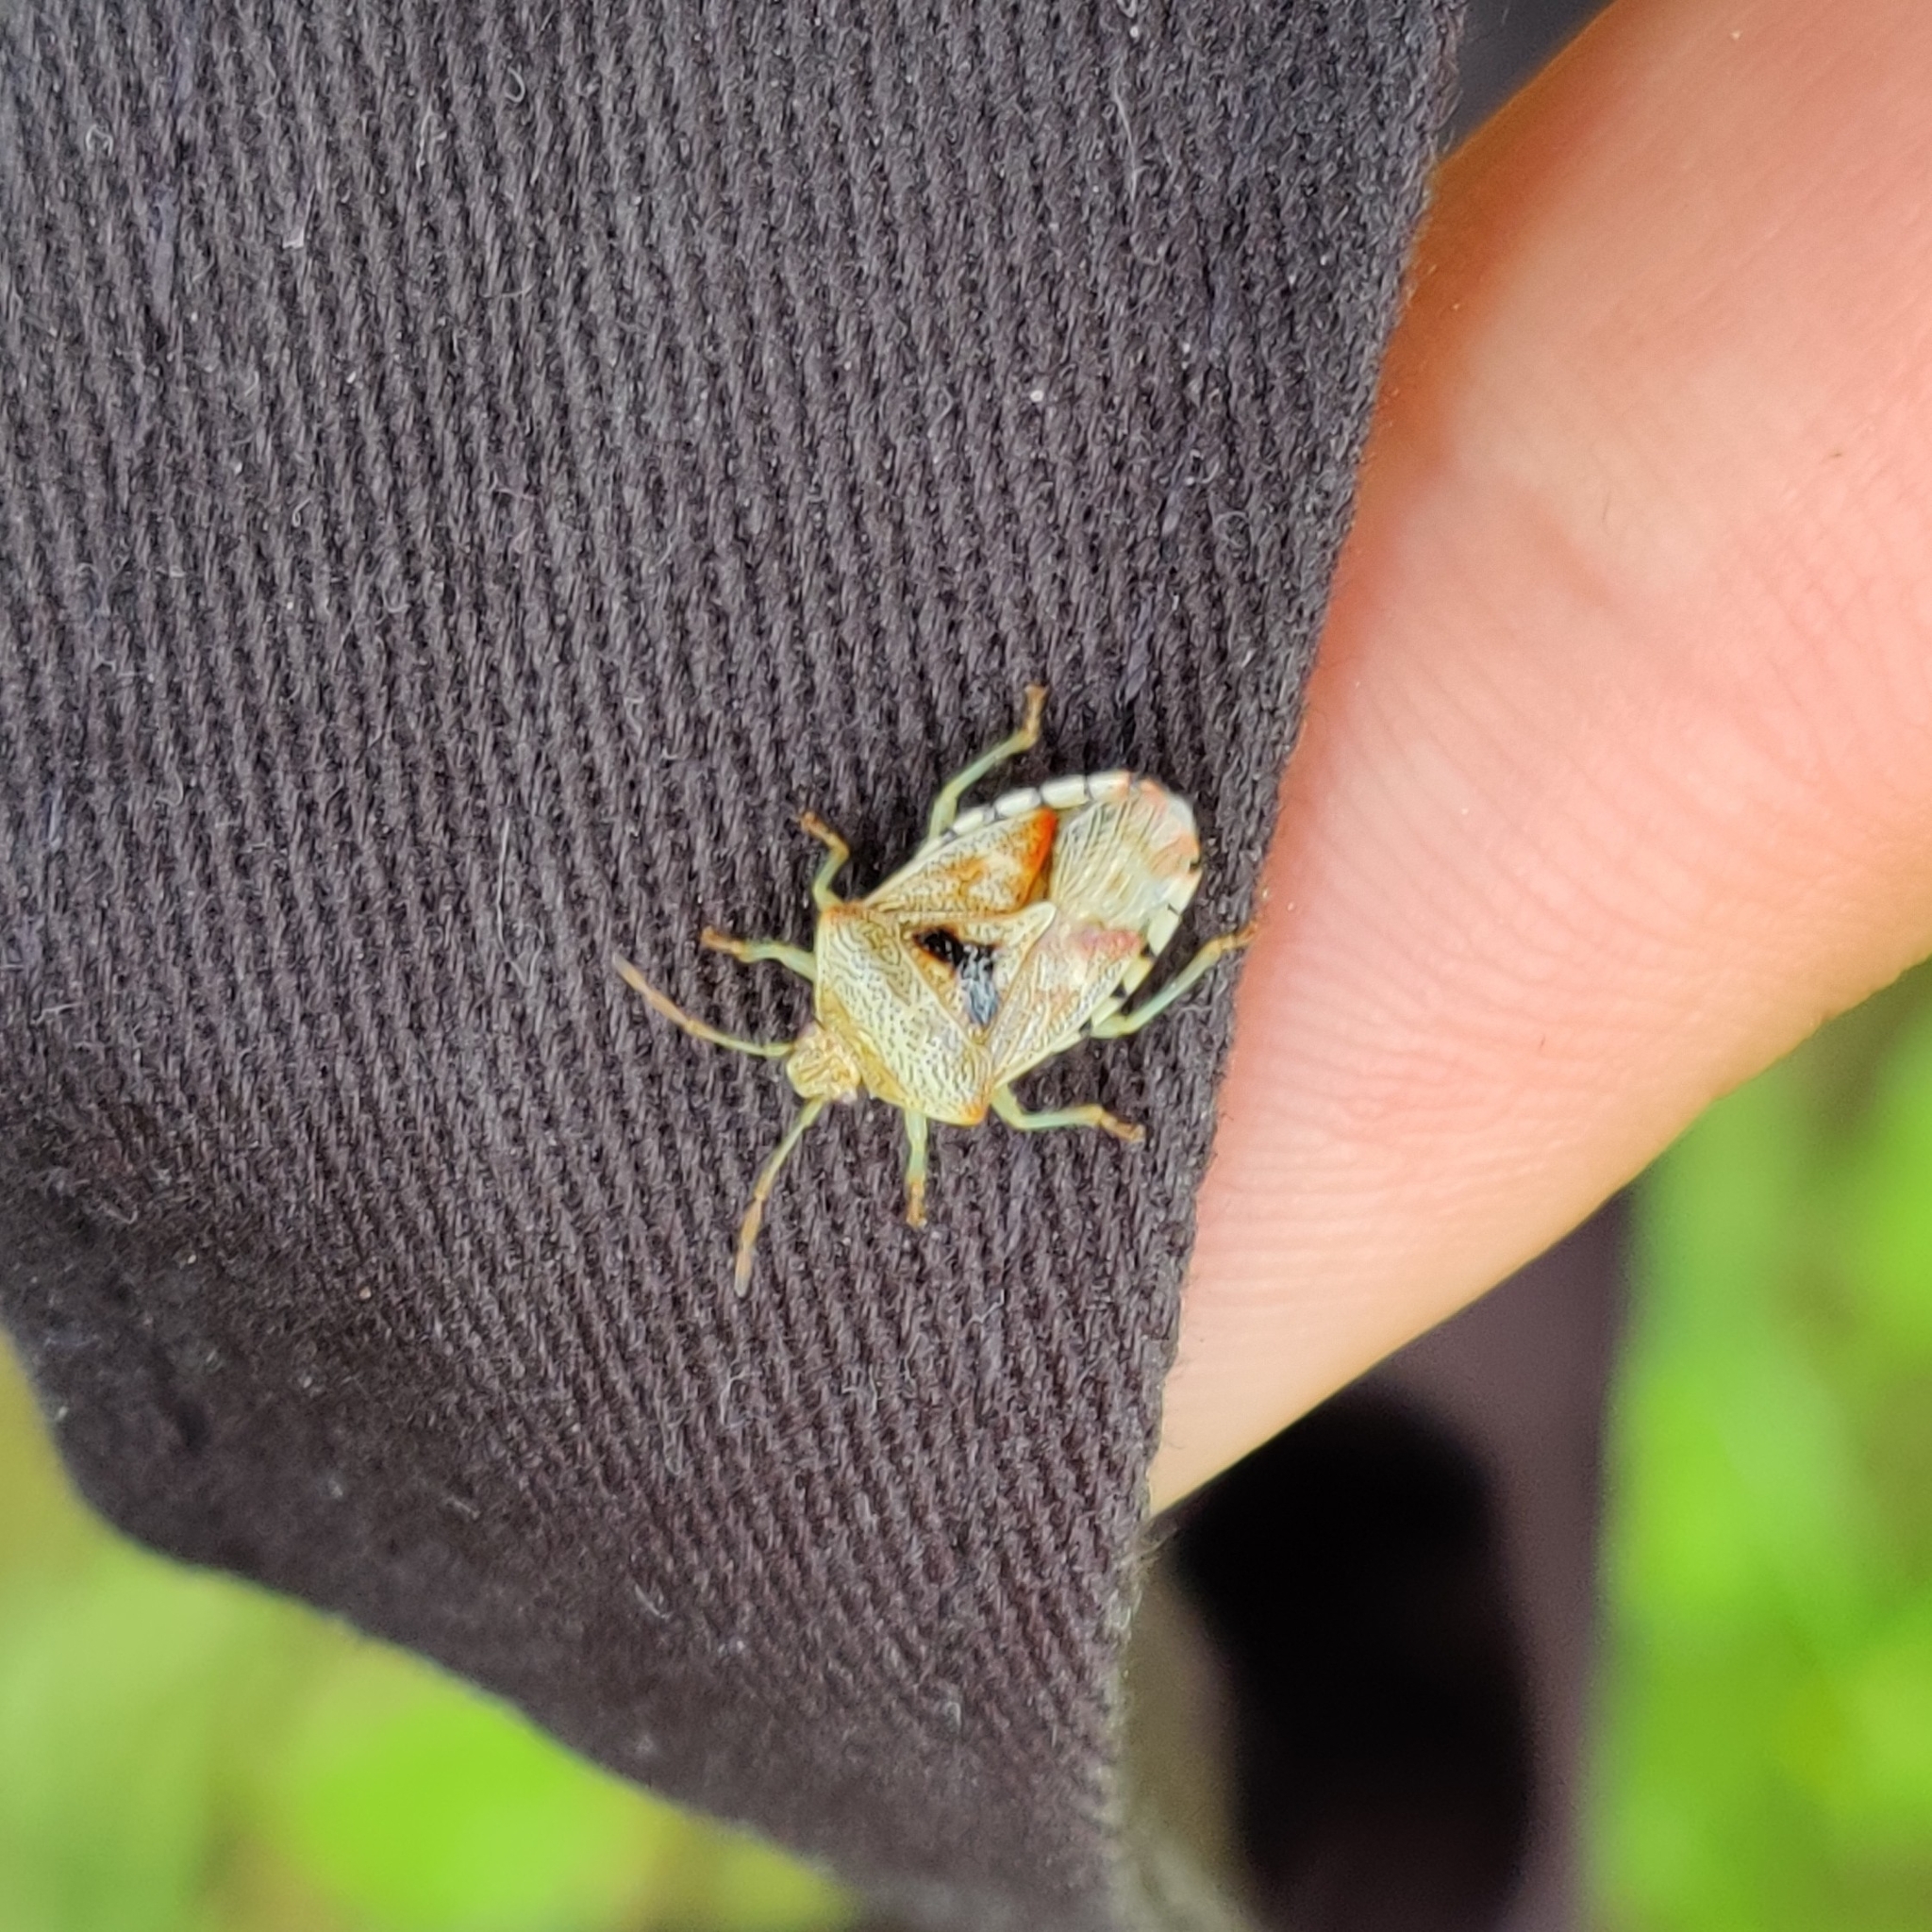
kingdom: Animalia
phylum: Arthropoda
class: Insecta
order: Hemiptera
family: Acanthosomatidae
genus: Elasmucha
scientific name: Elasmucha grisea
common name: Parent bug
